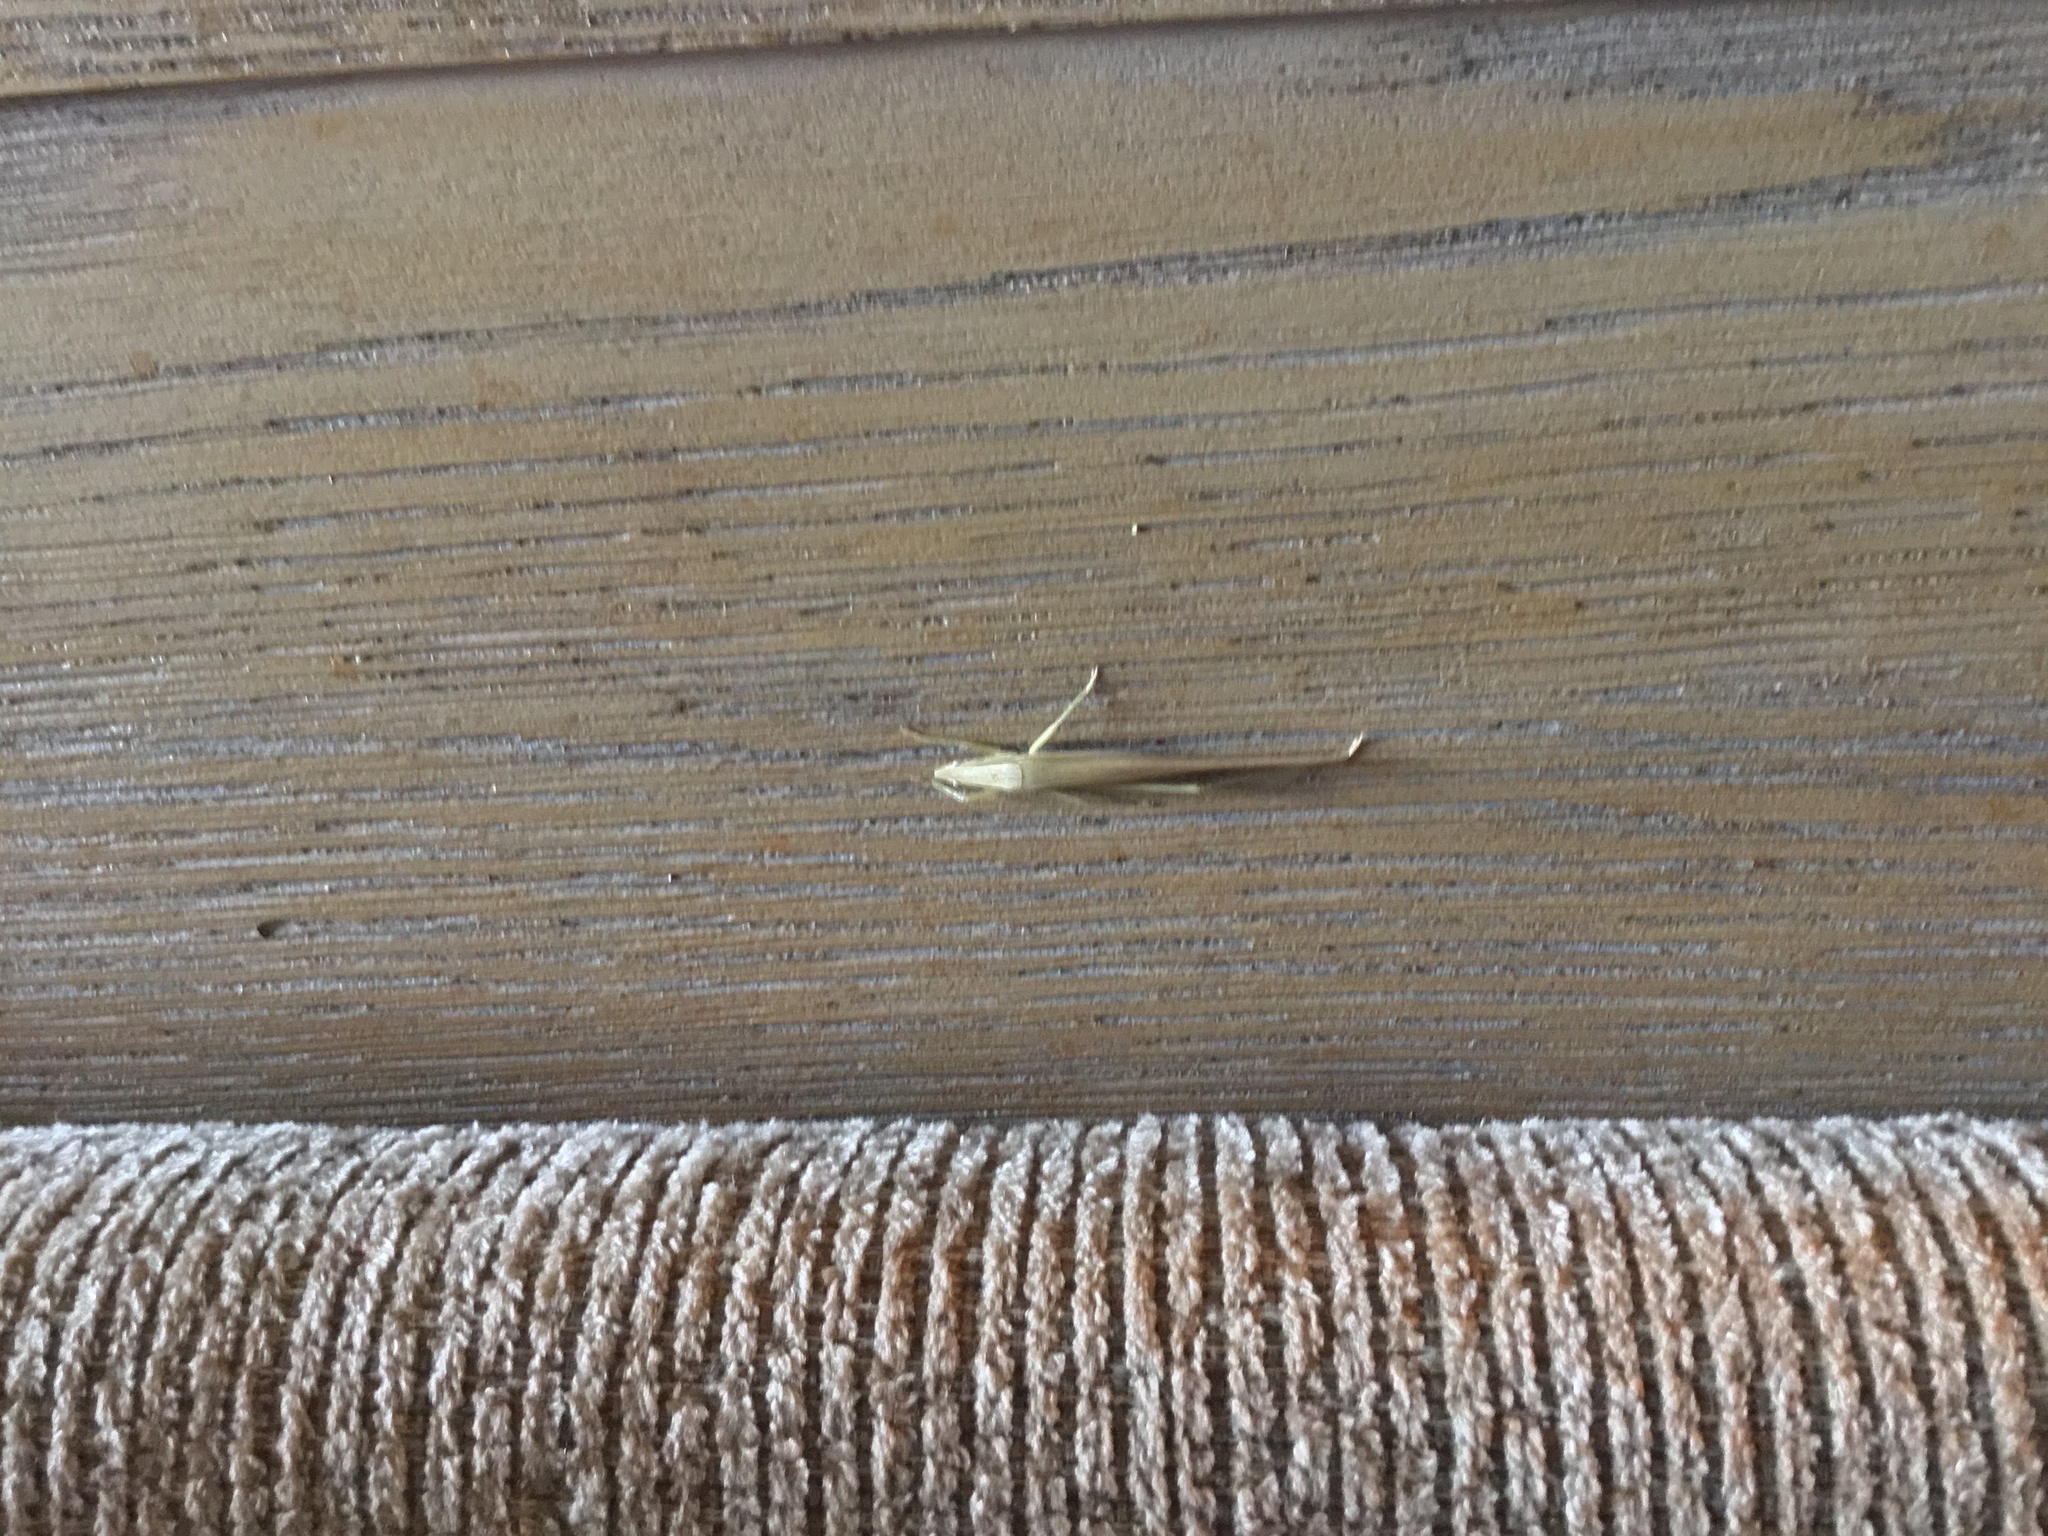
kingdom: Animalia
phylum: Arthropoda
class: Insecta
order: Orthoptera
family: Tettigoniidae
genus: Euconocephalus
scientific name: Euconocephalus nasutus
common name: Grasshopper
